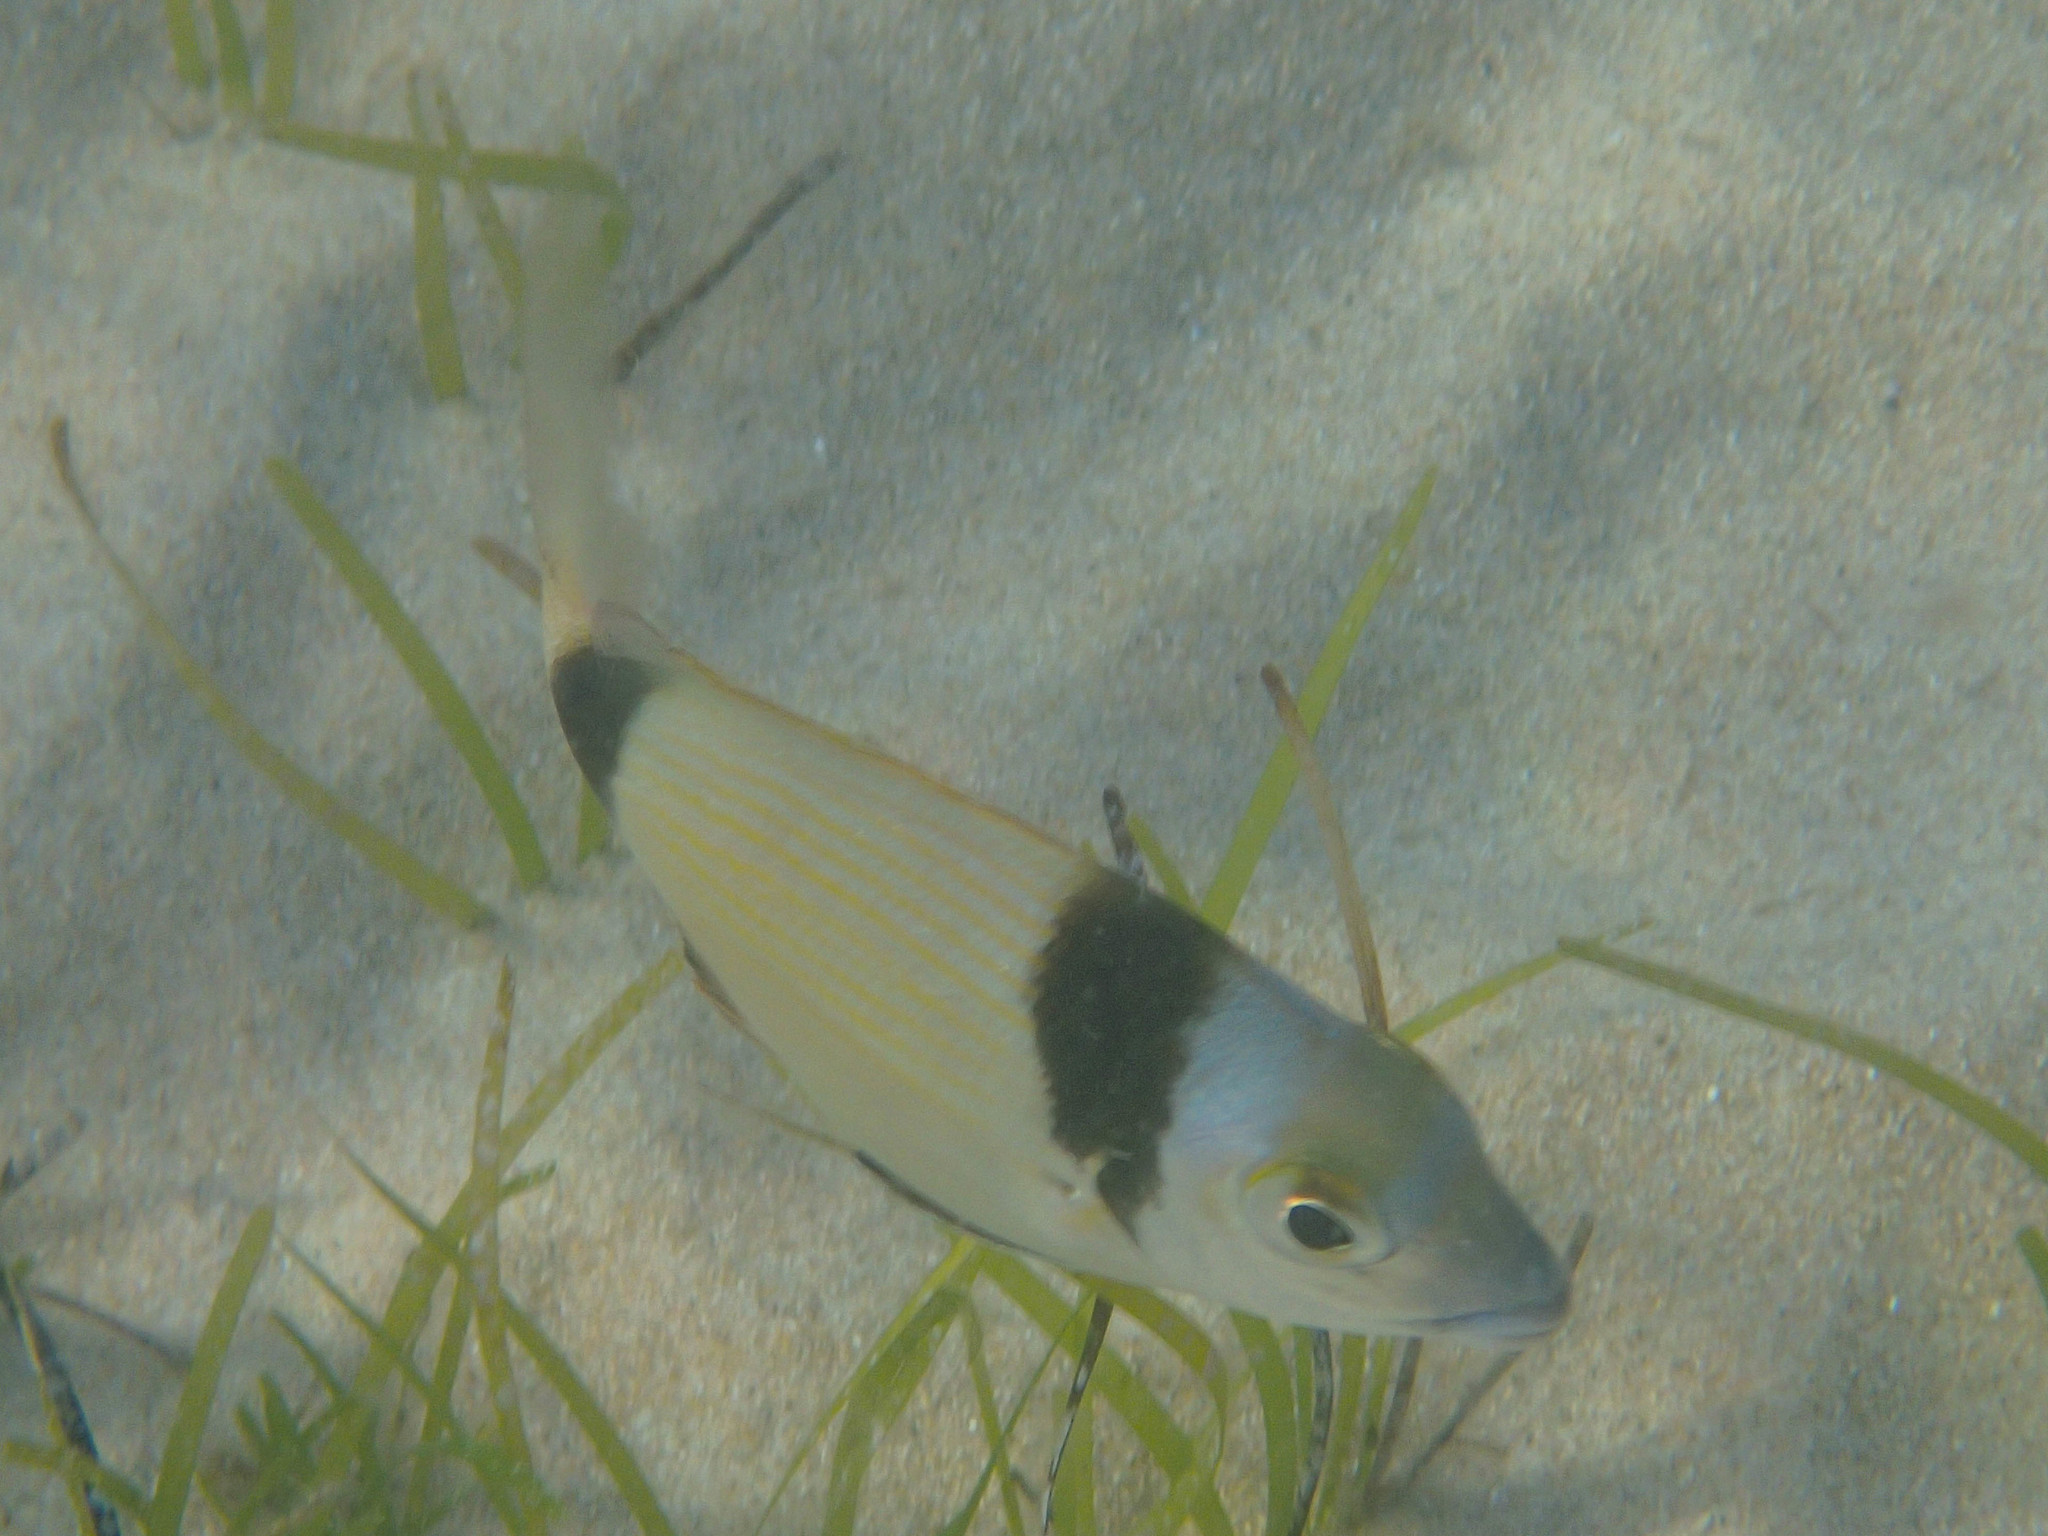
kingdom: Animalia
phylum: Chordata
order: Perciformes
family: Sparidae
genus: Diplodus
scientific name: Diplodus vulgaris
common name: Common two-banded seabream
